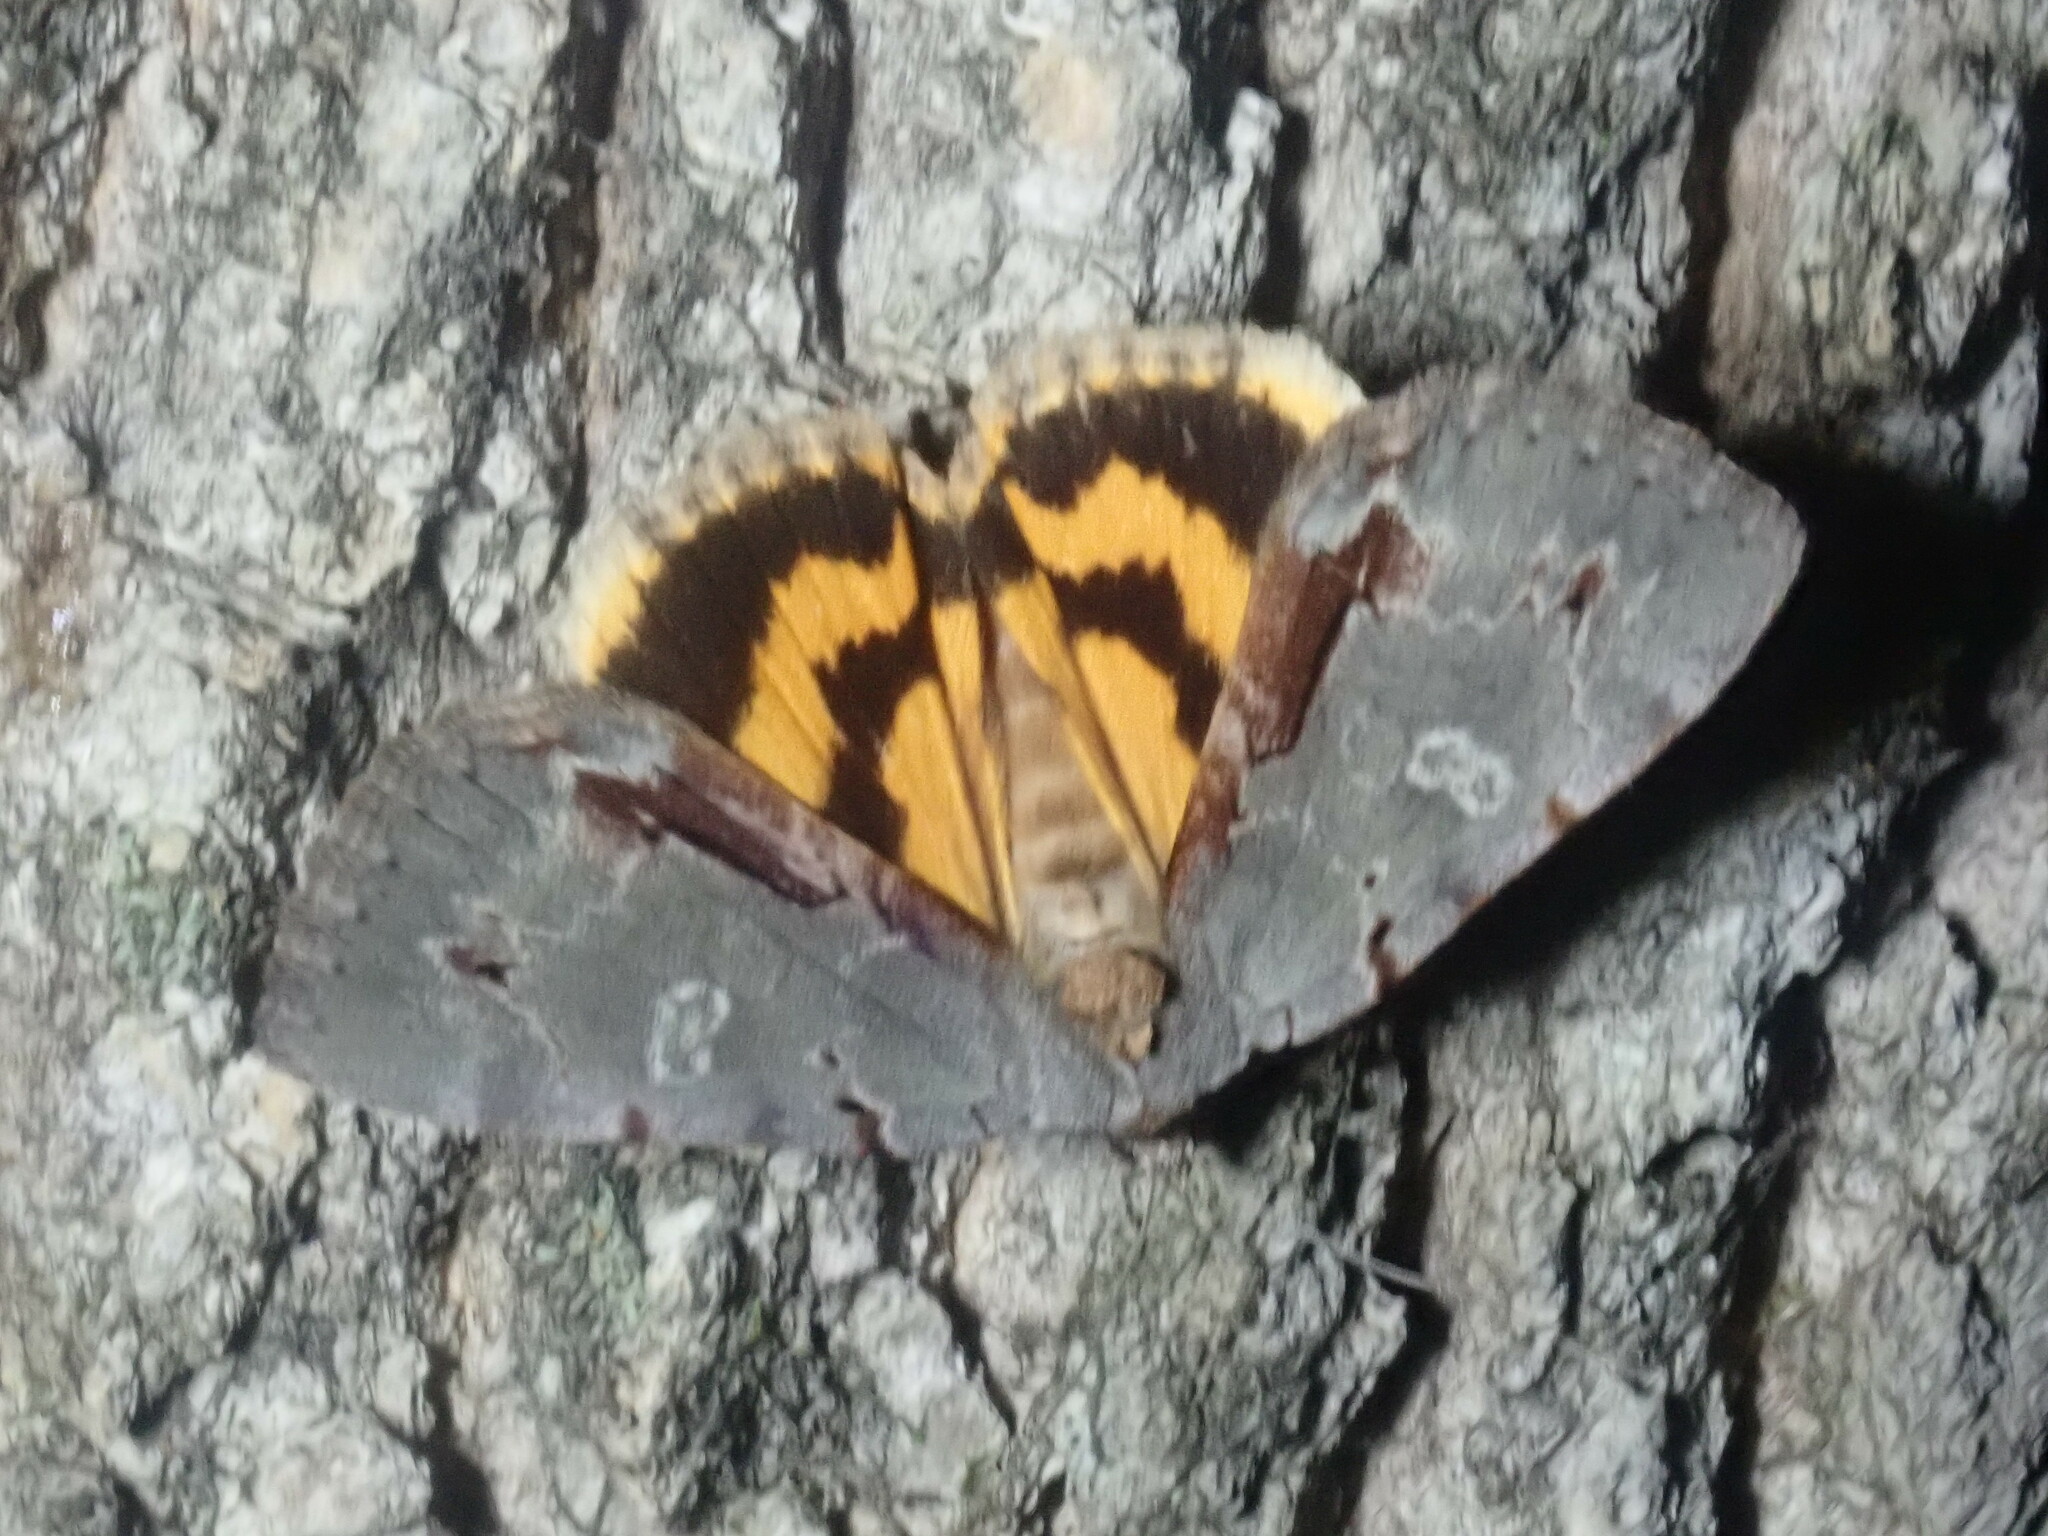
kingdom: Animalia
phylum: Arthropoda
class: Insecta
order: Lepidoptera
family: Erebidae
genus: Catocala
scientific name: Catocala grynea
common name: Woody underwing
